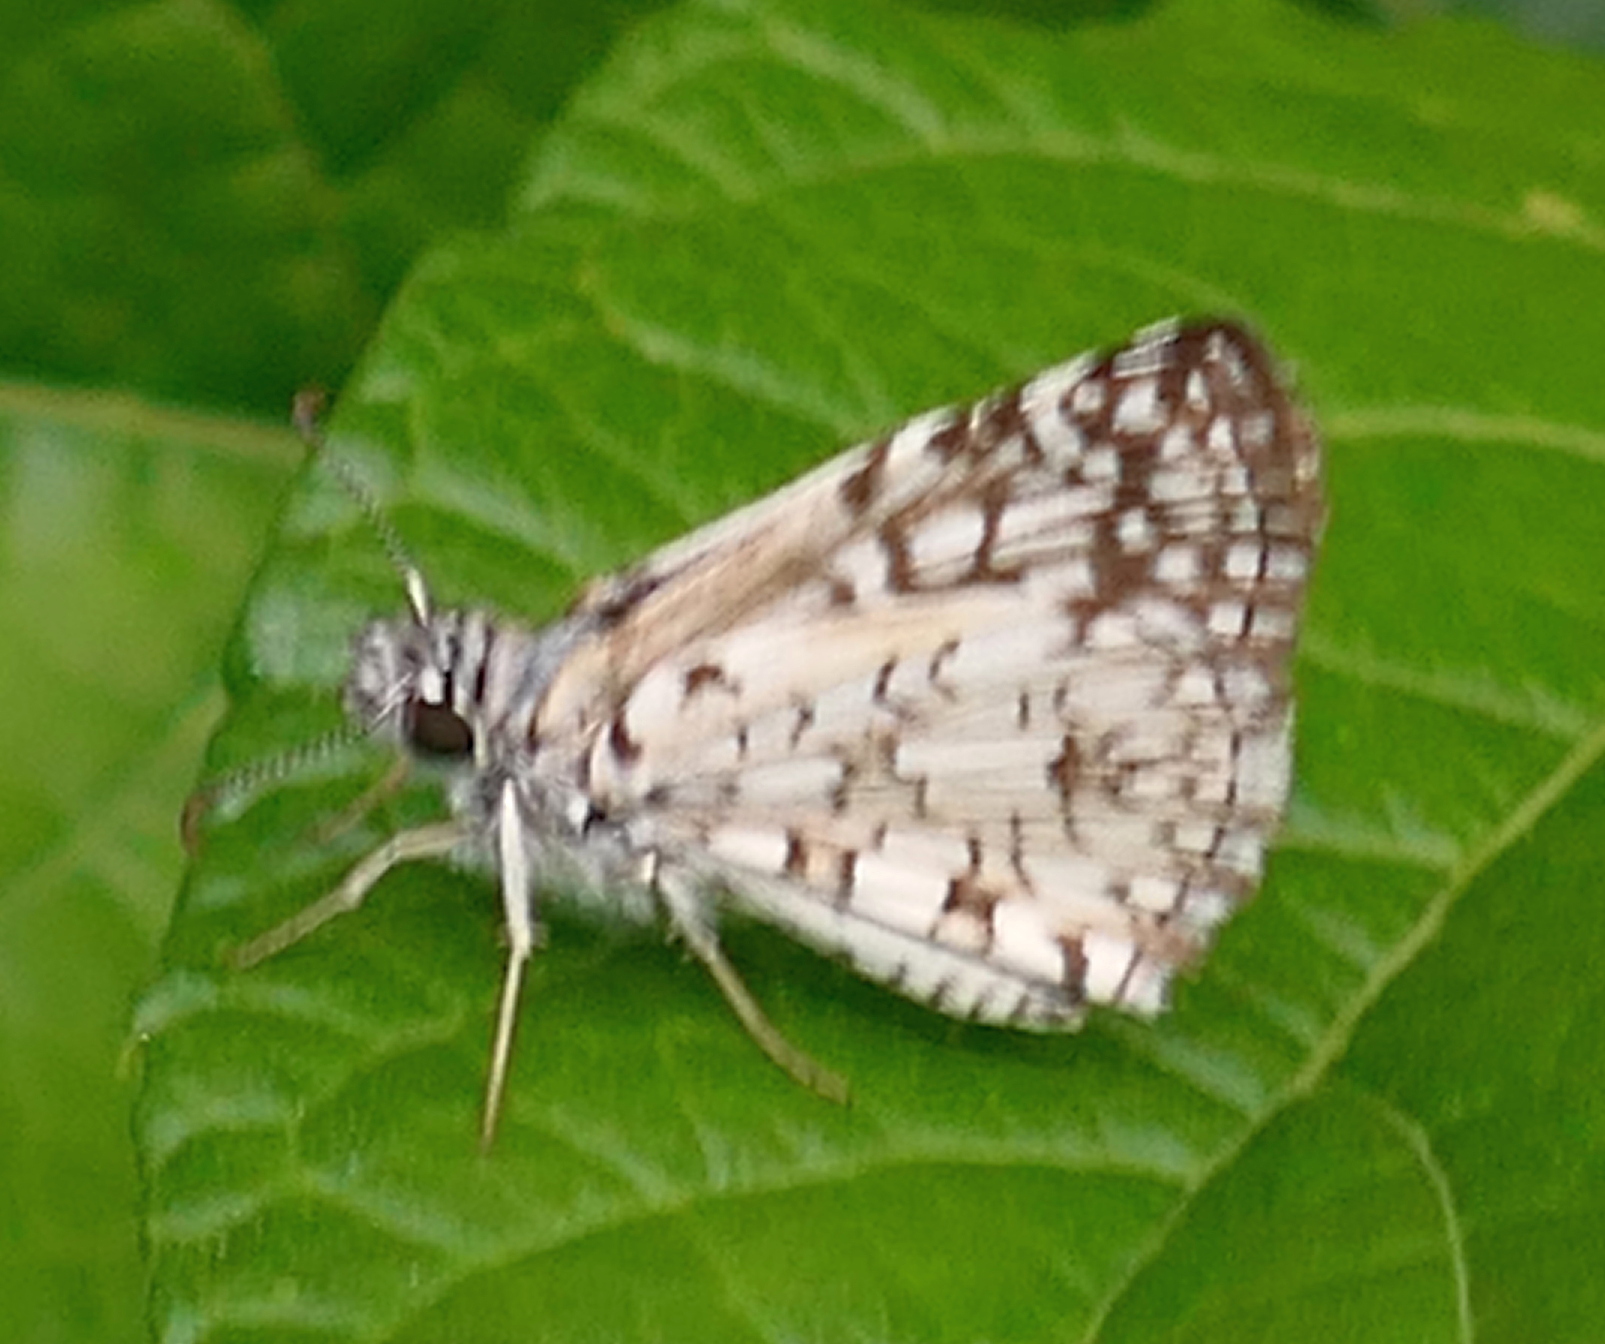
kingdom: Animalia
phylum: Arthropoda
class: Insecta
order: Lepidoptera
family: Hesperiidae
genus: Pyrgus
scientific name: Pyrgus oileus
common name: Tropical checkered-skipper
